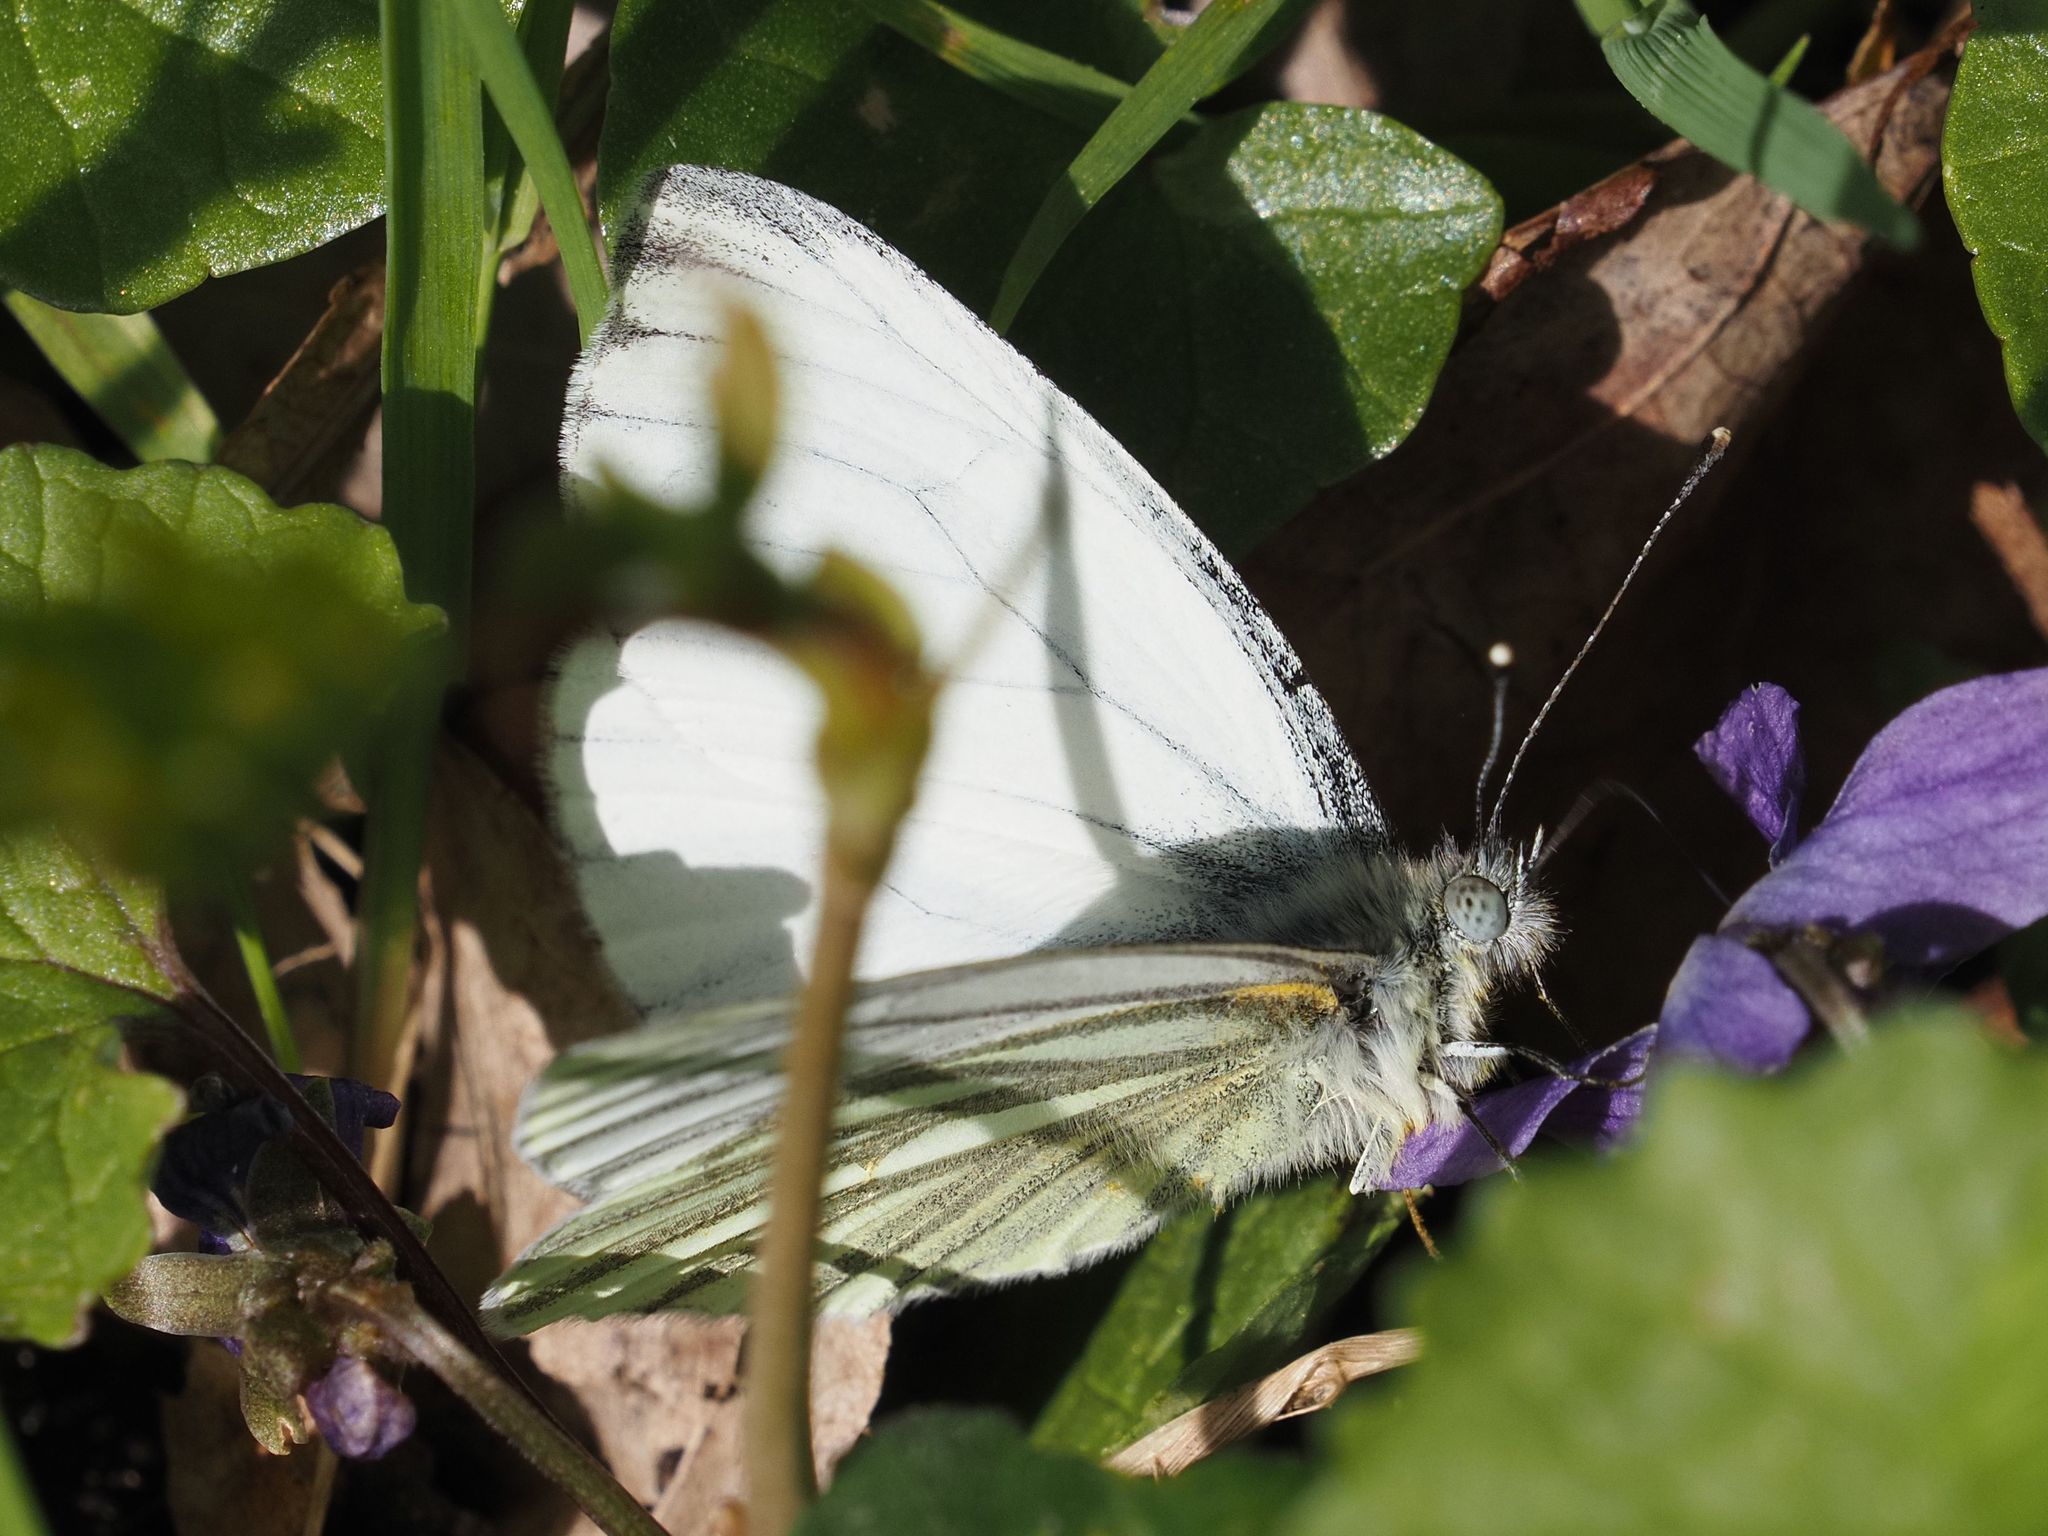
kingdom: Animalia
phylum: Arthropoda
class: Insecta
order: Lepidoptera
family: Pieridae
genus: Pieris
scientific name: Pieris napi
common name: Green-veined white
